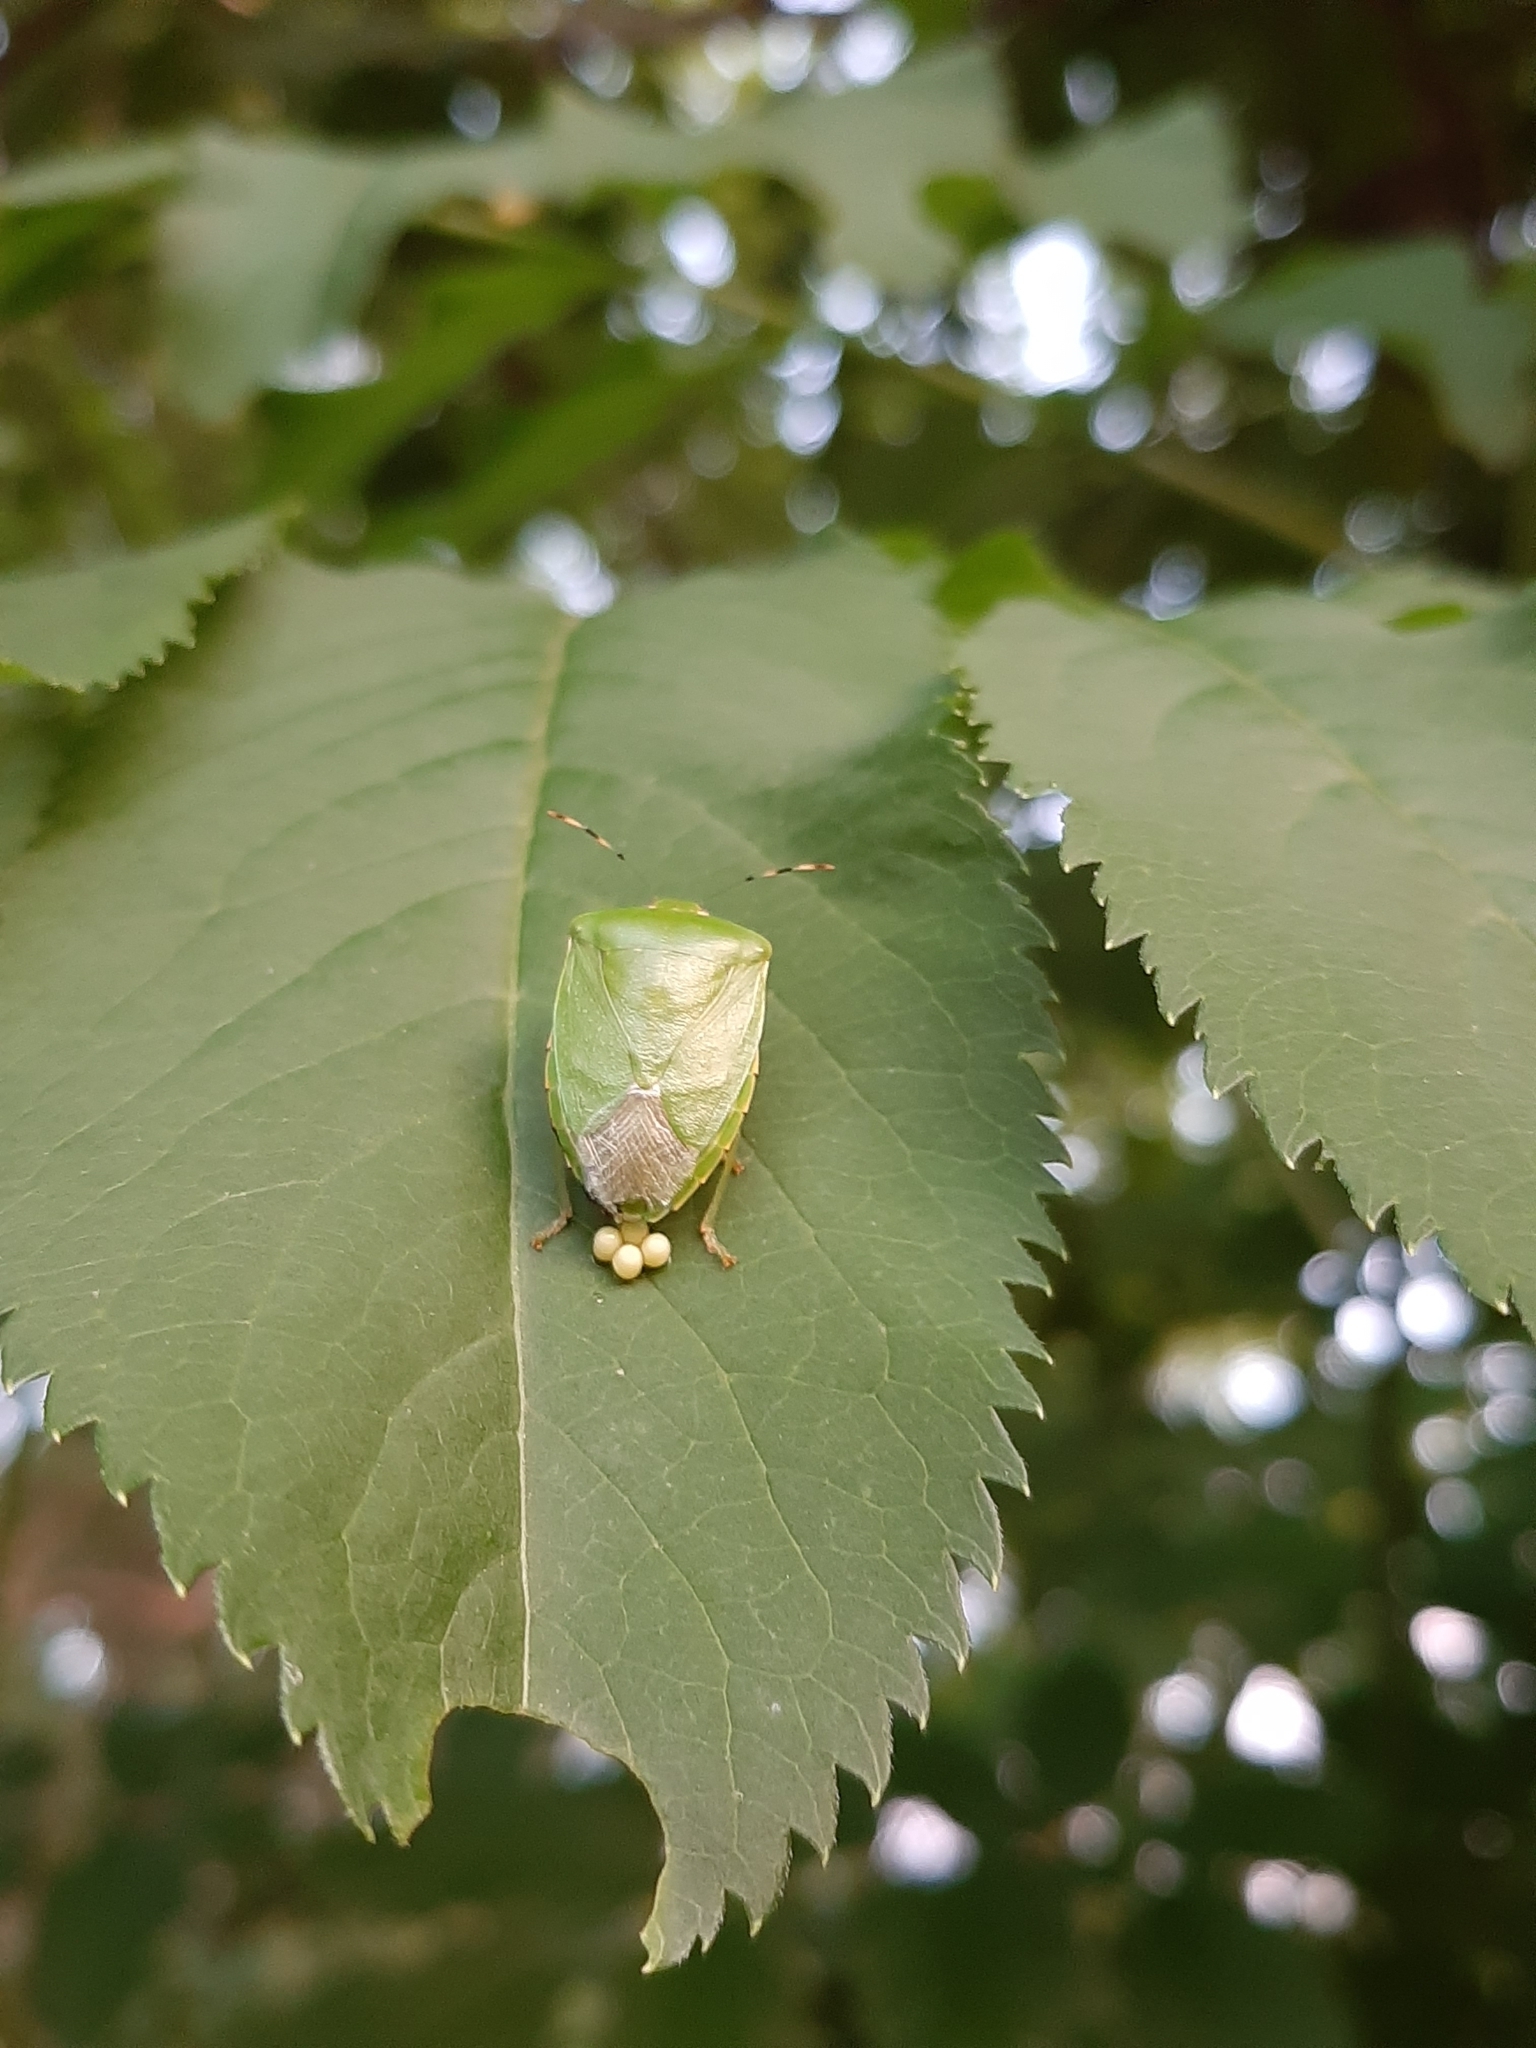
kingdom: Animalia
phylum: Arthropoda
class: Insecta
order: Hemiptera
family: Pentatomidae
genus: Chinavia
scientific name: Chinavia hilaris
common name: Green stink bug
